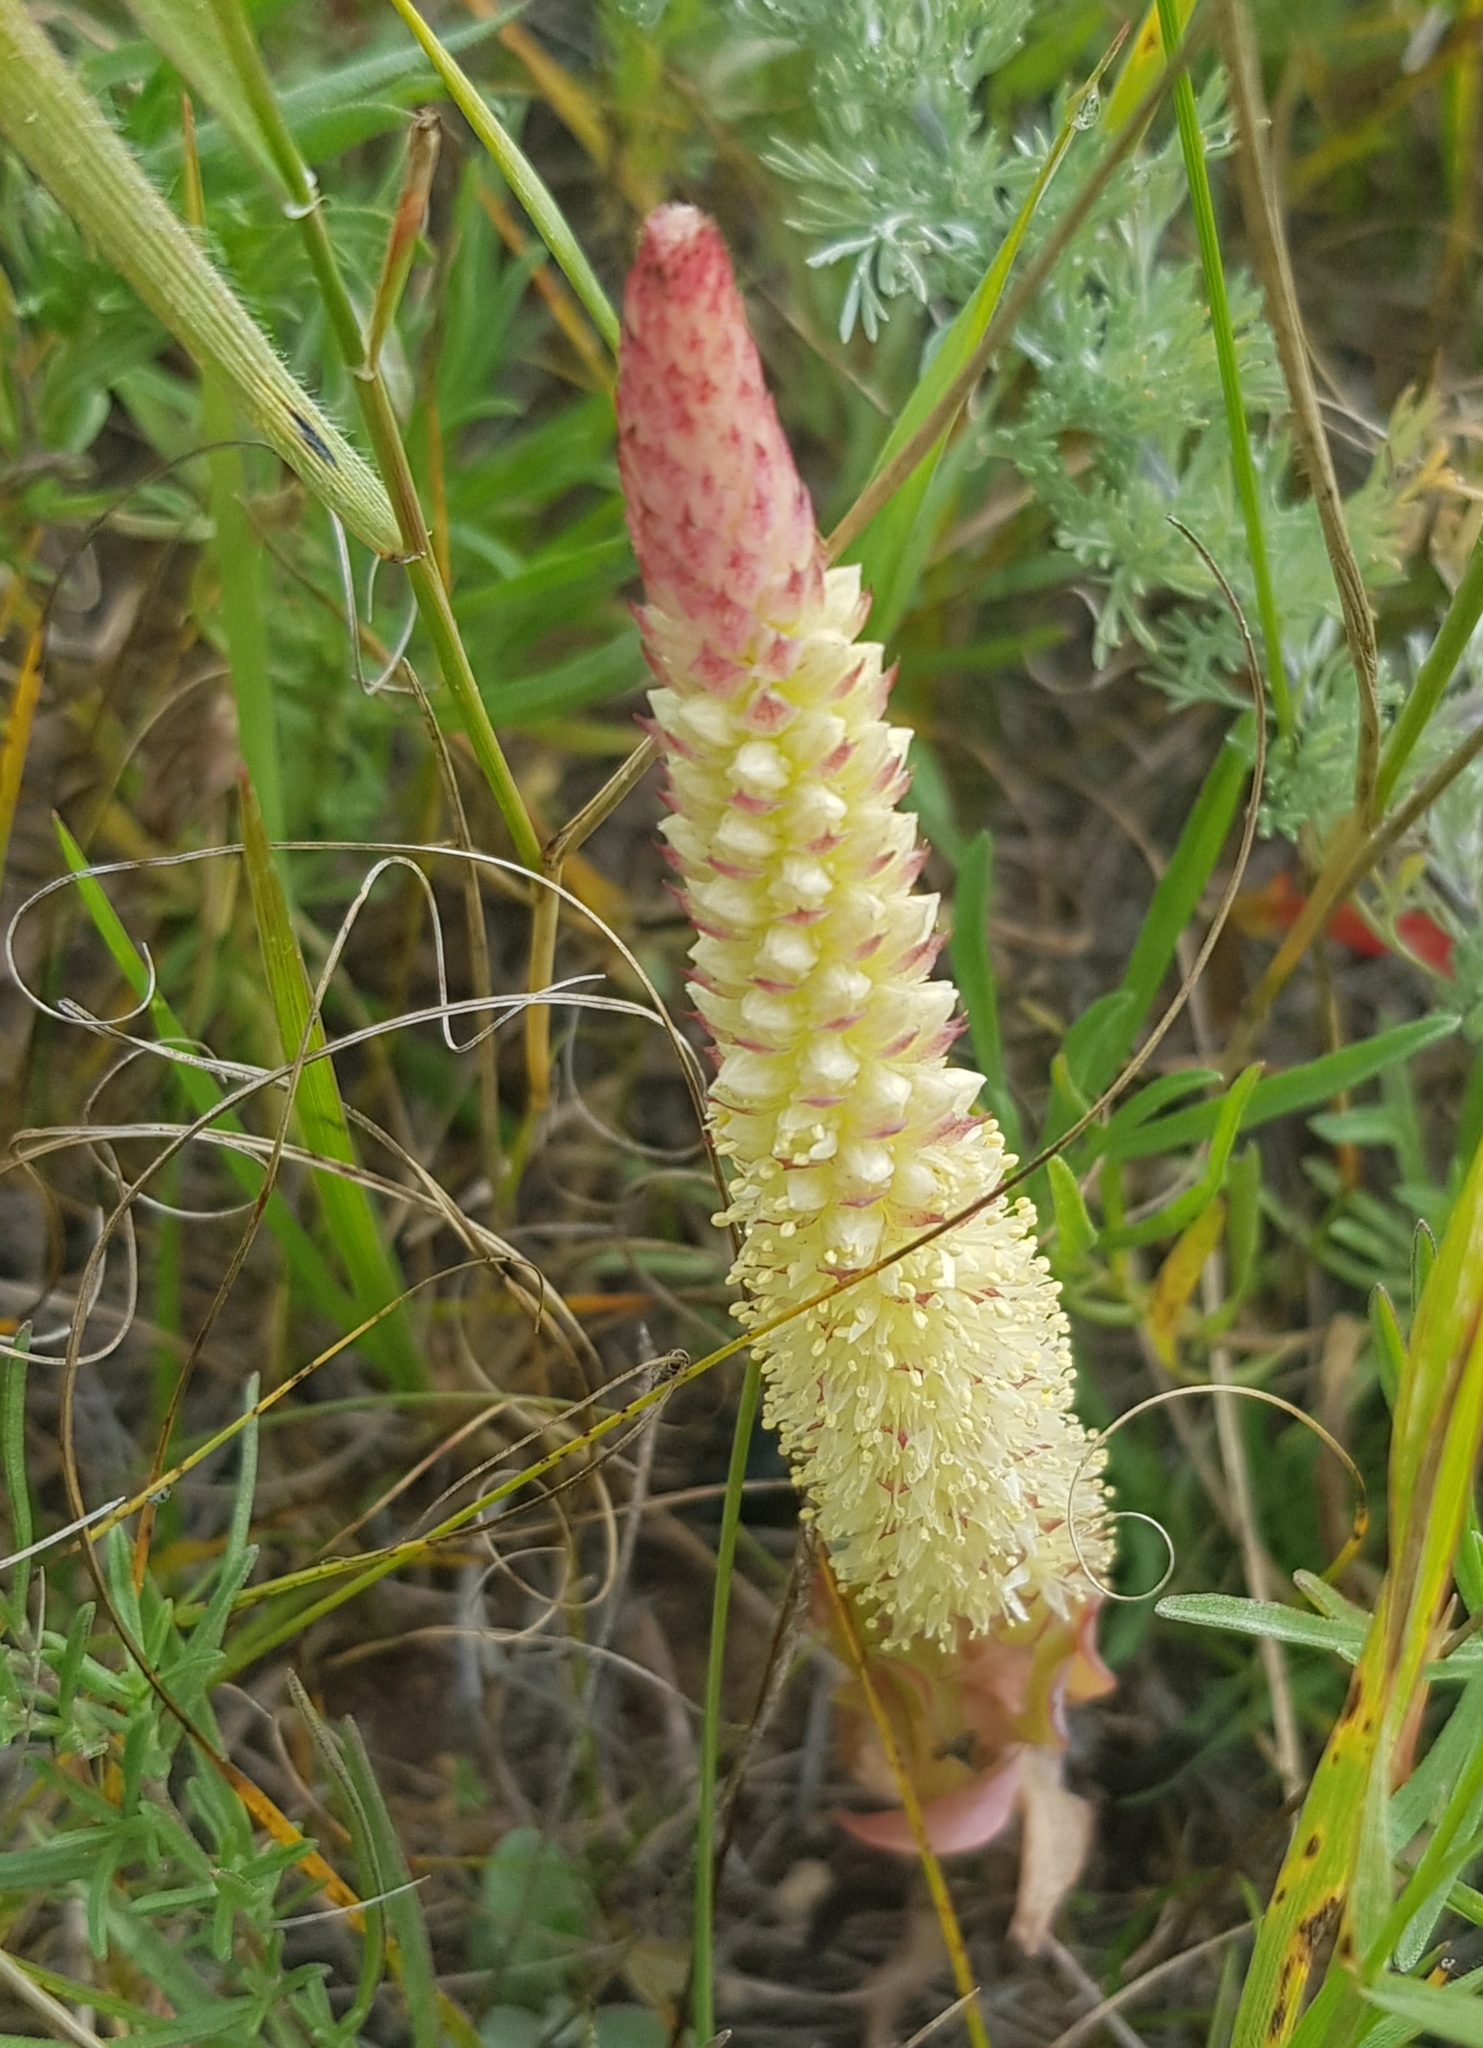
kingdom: Plantae
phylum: Tracheophyta
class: Magnoliopsida
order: Saxifragales
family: Crassulaceae
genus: Orostachys
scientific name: Orostachys malacophylla
